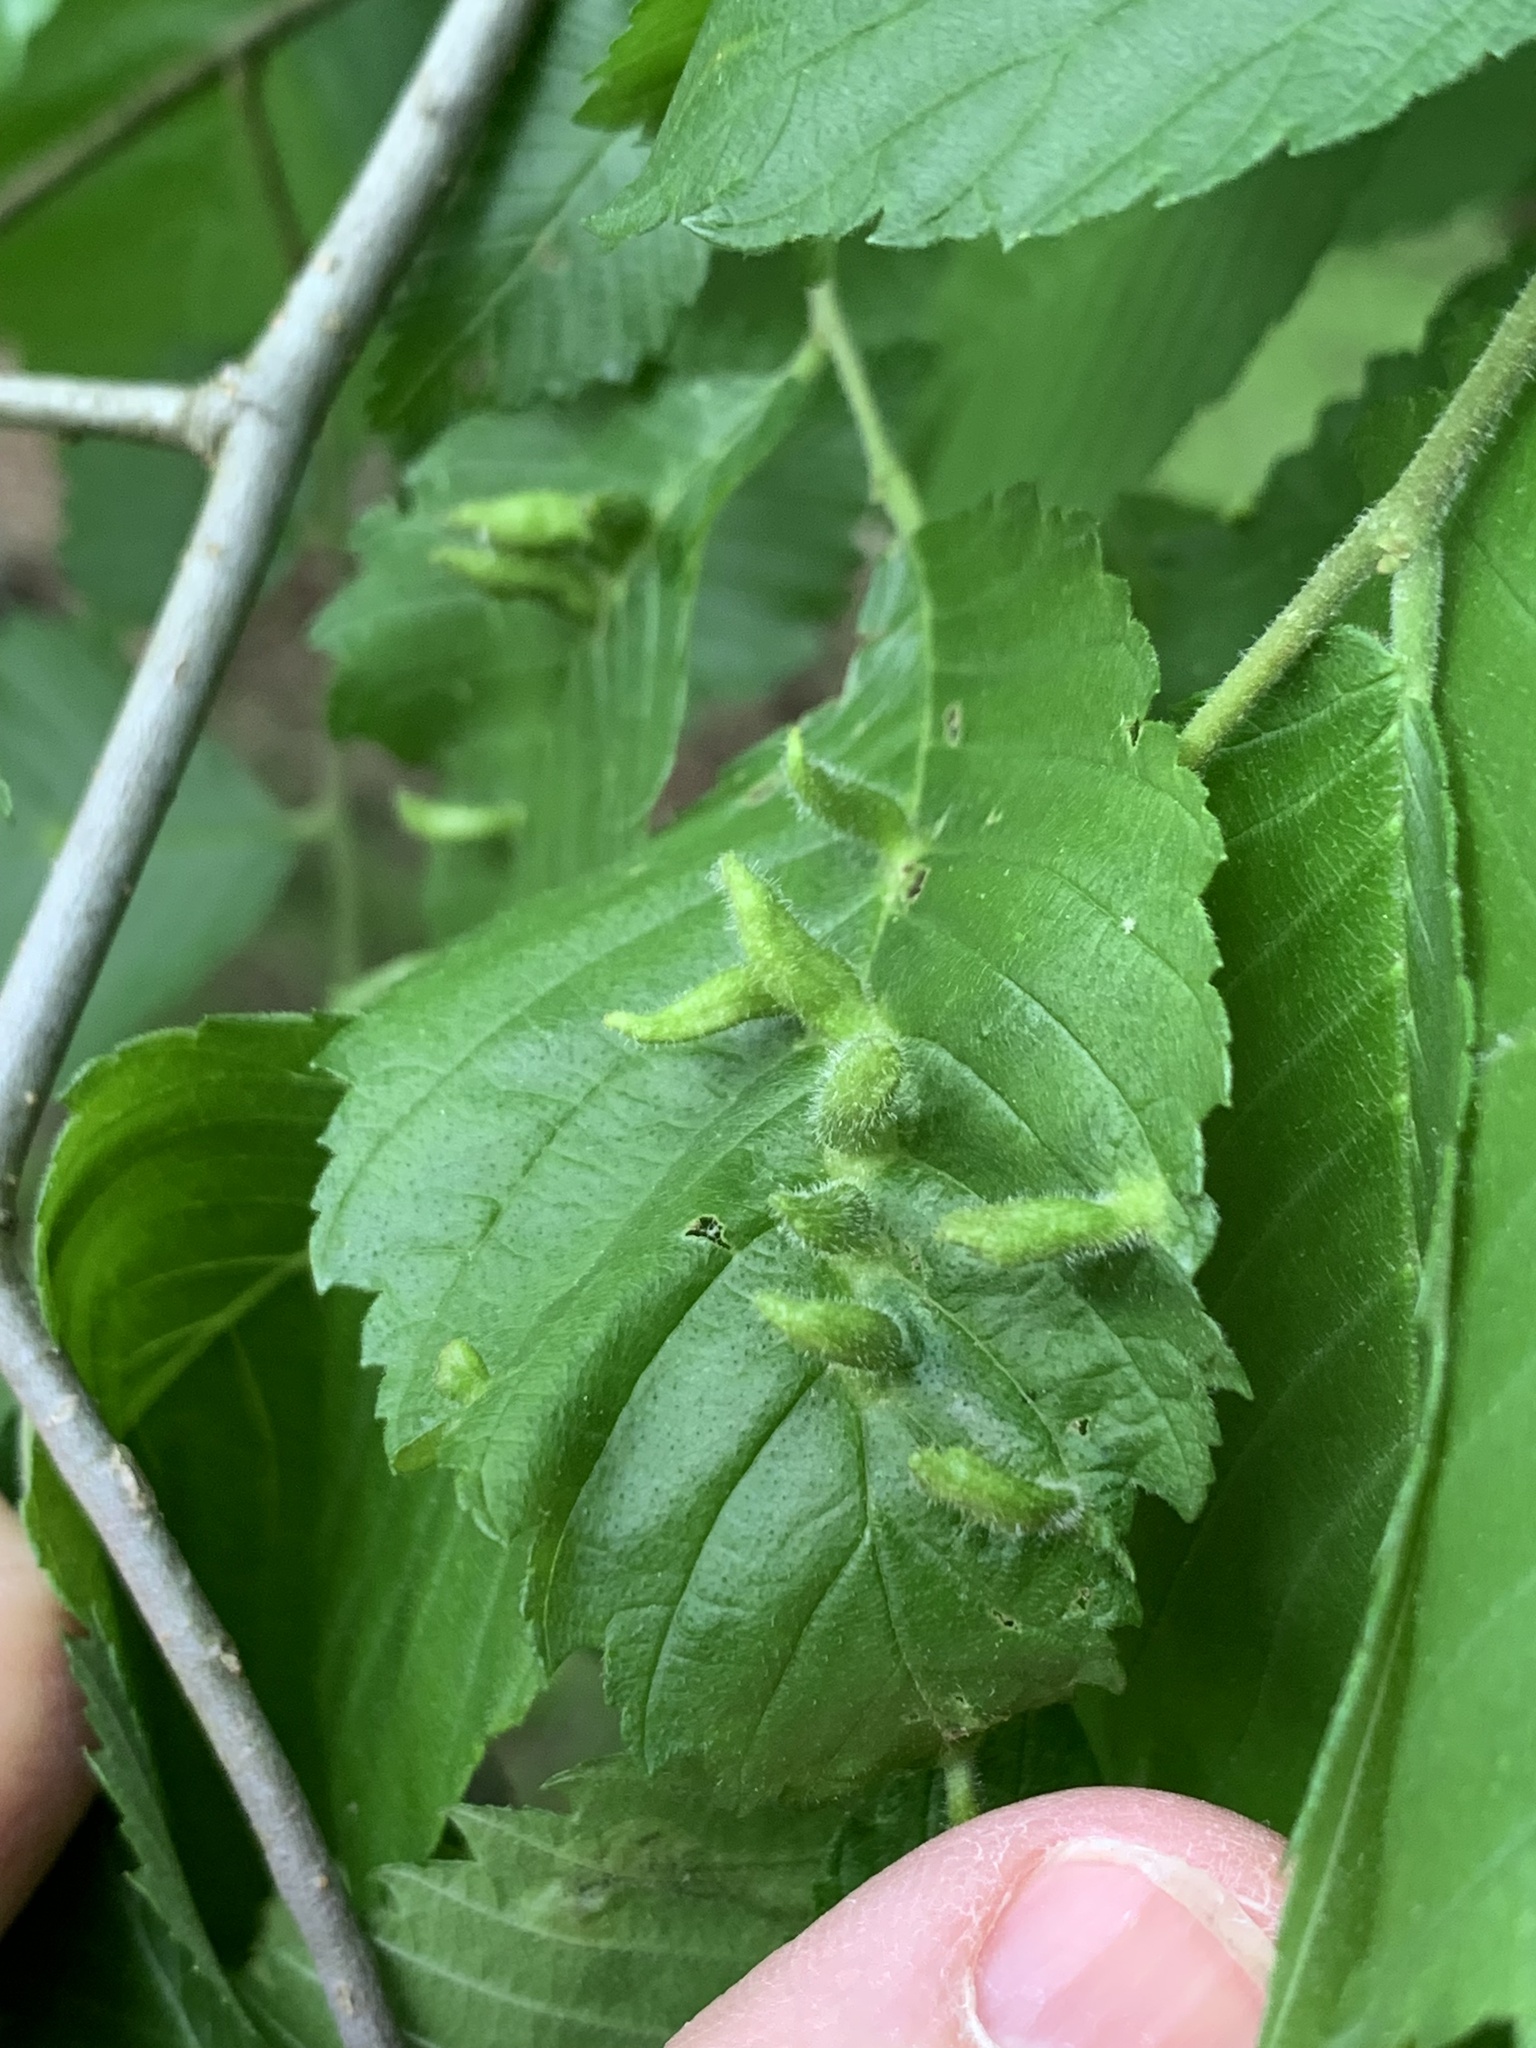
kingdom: Animalia
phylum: Arthropoda
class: Arachnida
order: Trombidiformes
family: Eriophyidae
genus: Aceria
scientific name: Aceria
